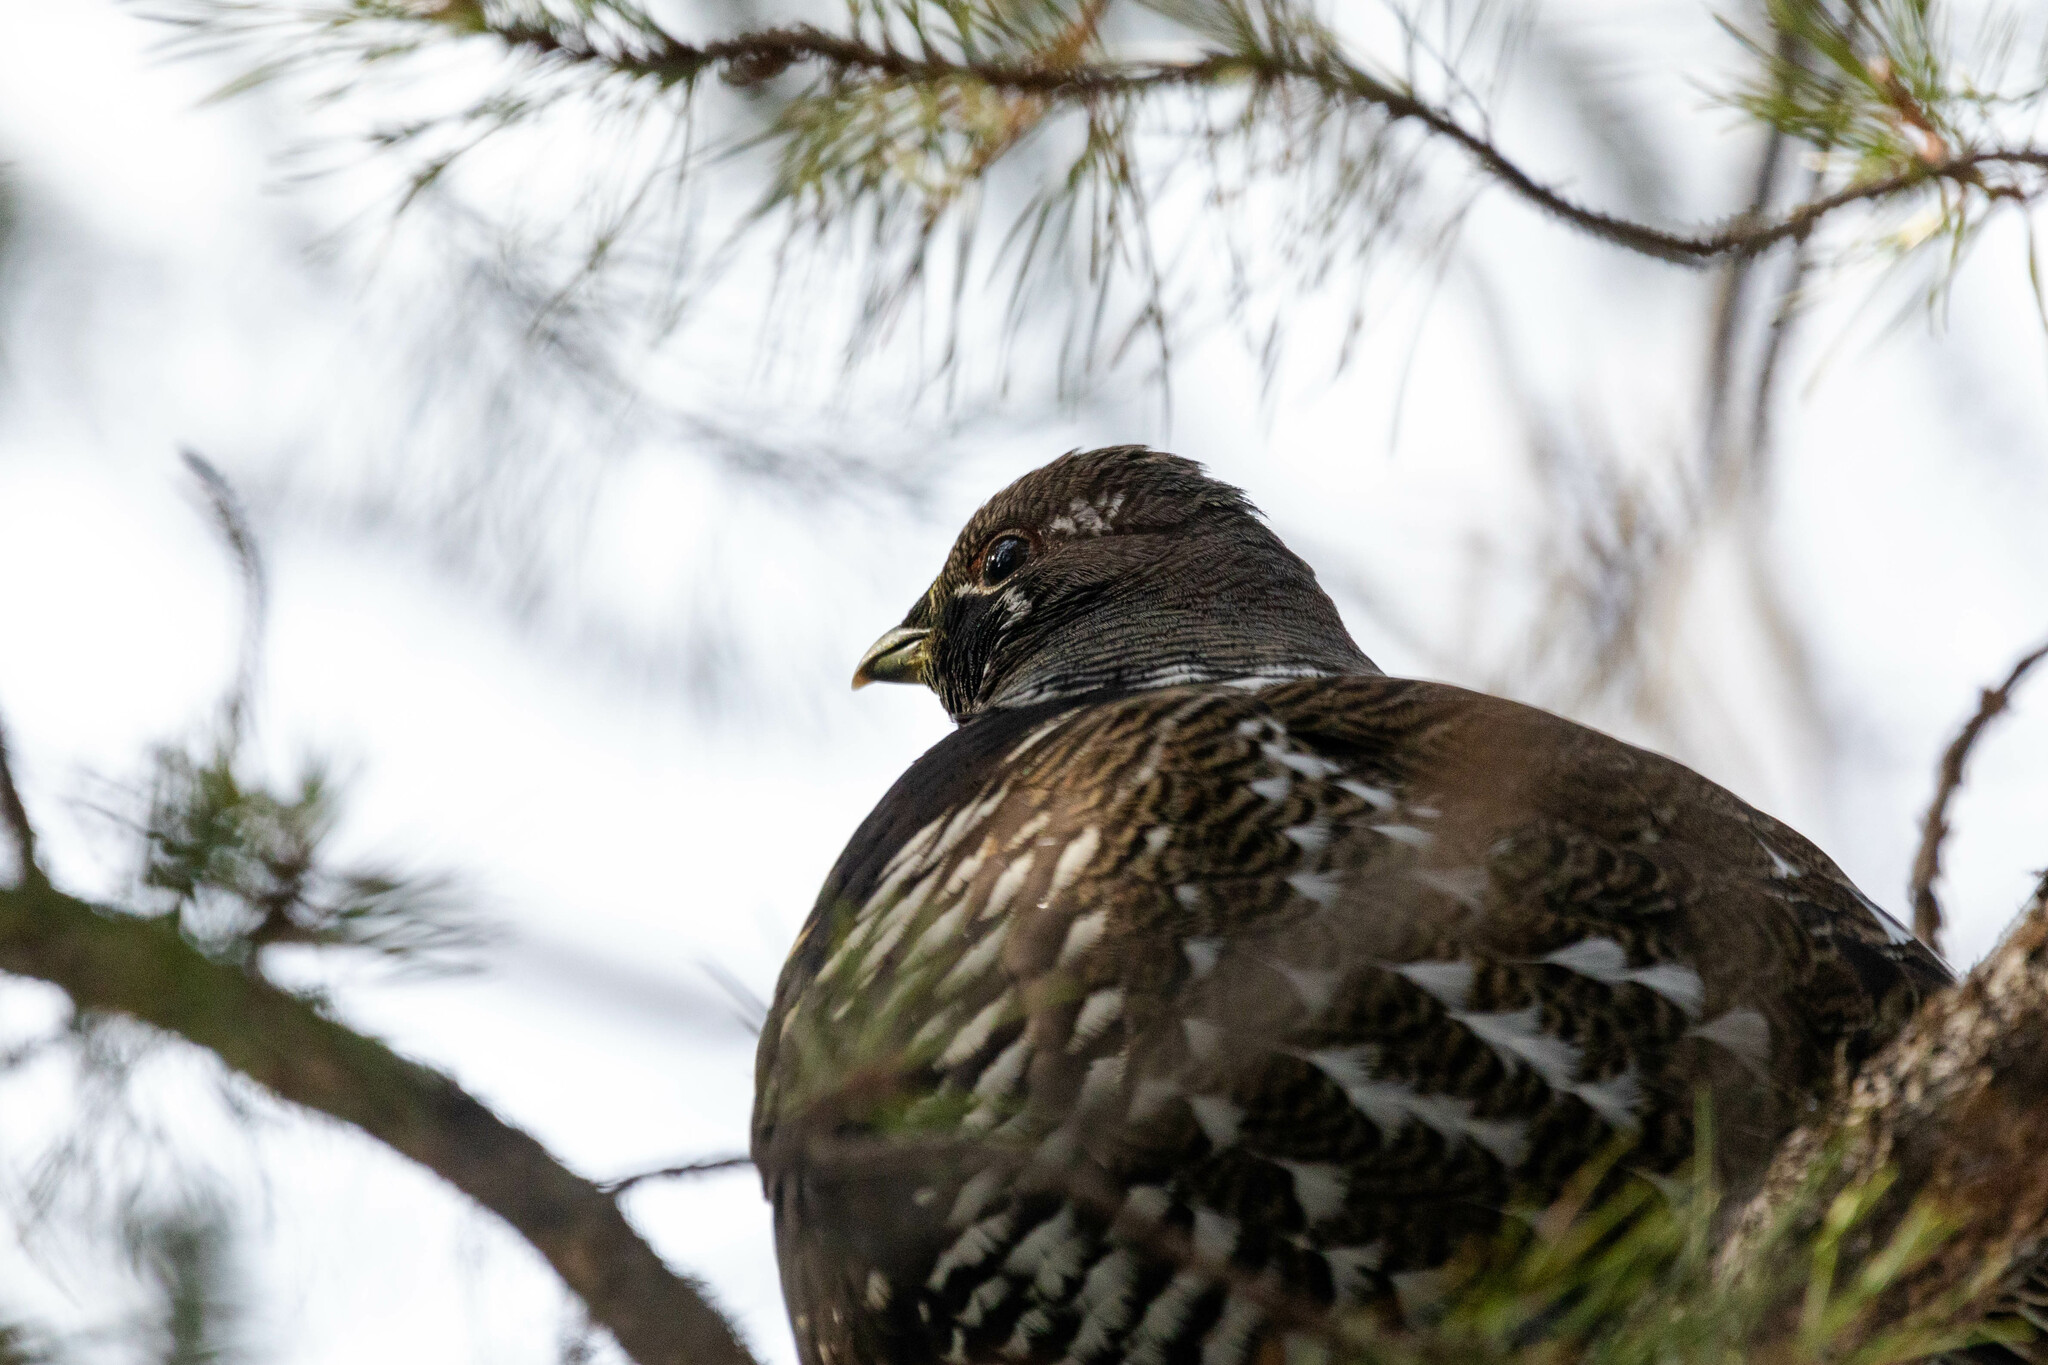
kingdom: Animalia
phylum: Chordata
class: Aves
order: Galliformes
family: Phasianidae
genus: Canachites
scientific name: Canachites canadensis
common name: Spruce grouse
